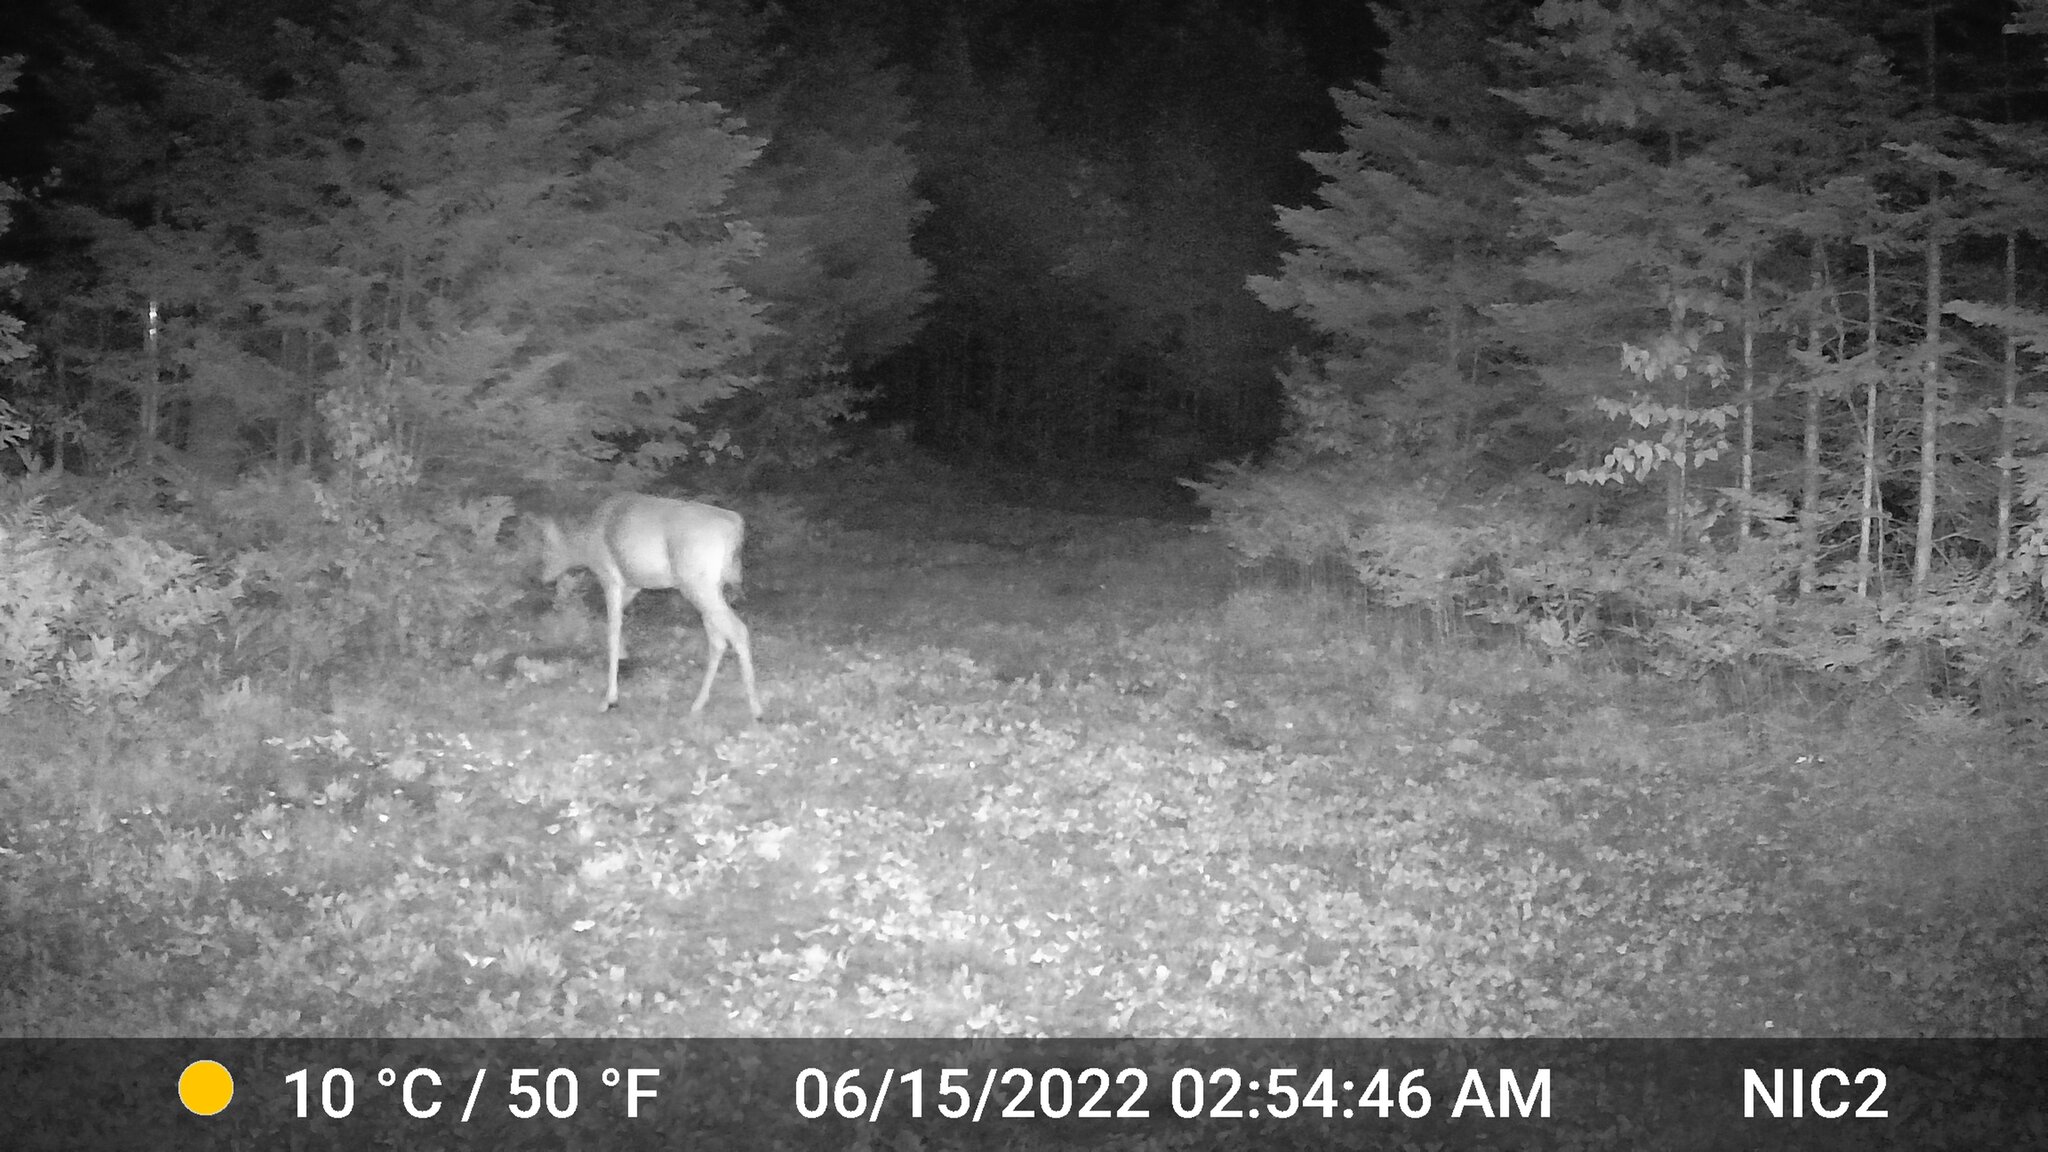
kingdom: Animalia
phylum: Chordata
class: Mammalia
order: Artiodactyla
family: Cervidae
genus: Odocoileus
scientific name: Odocoileus virginianus
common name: White-tailed deer
